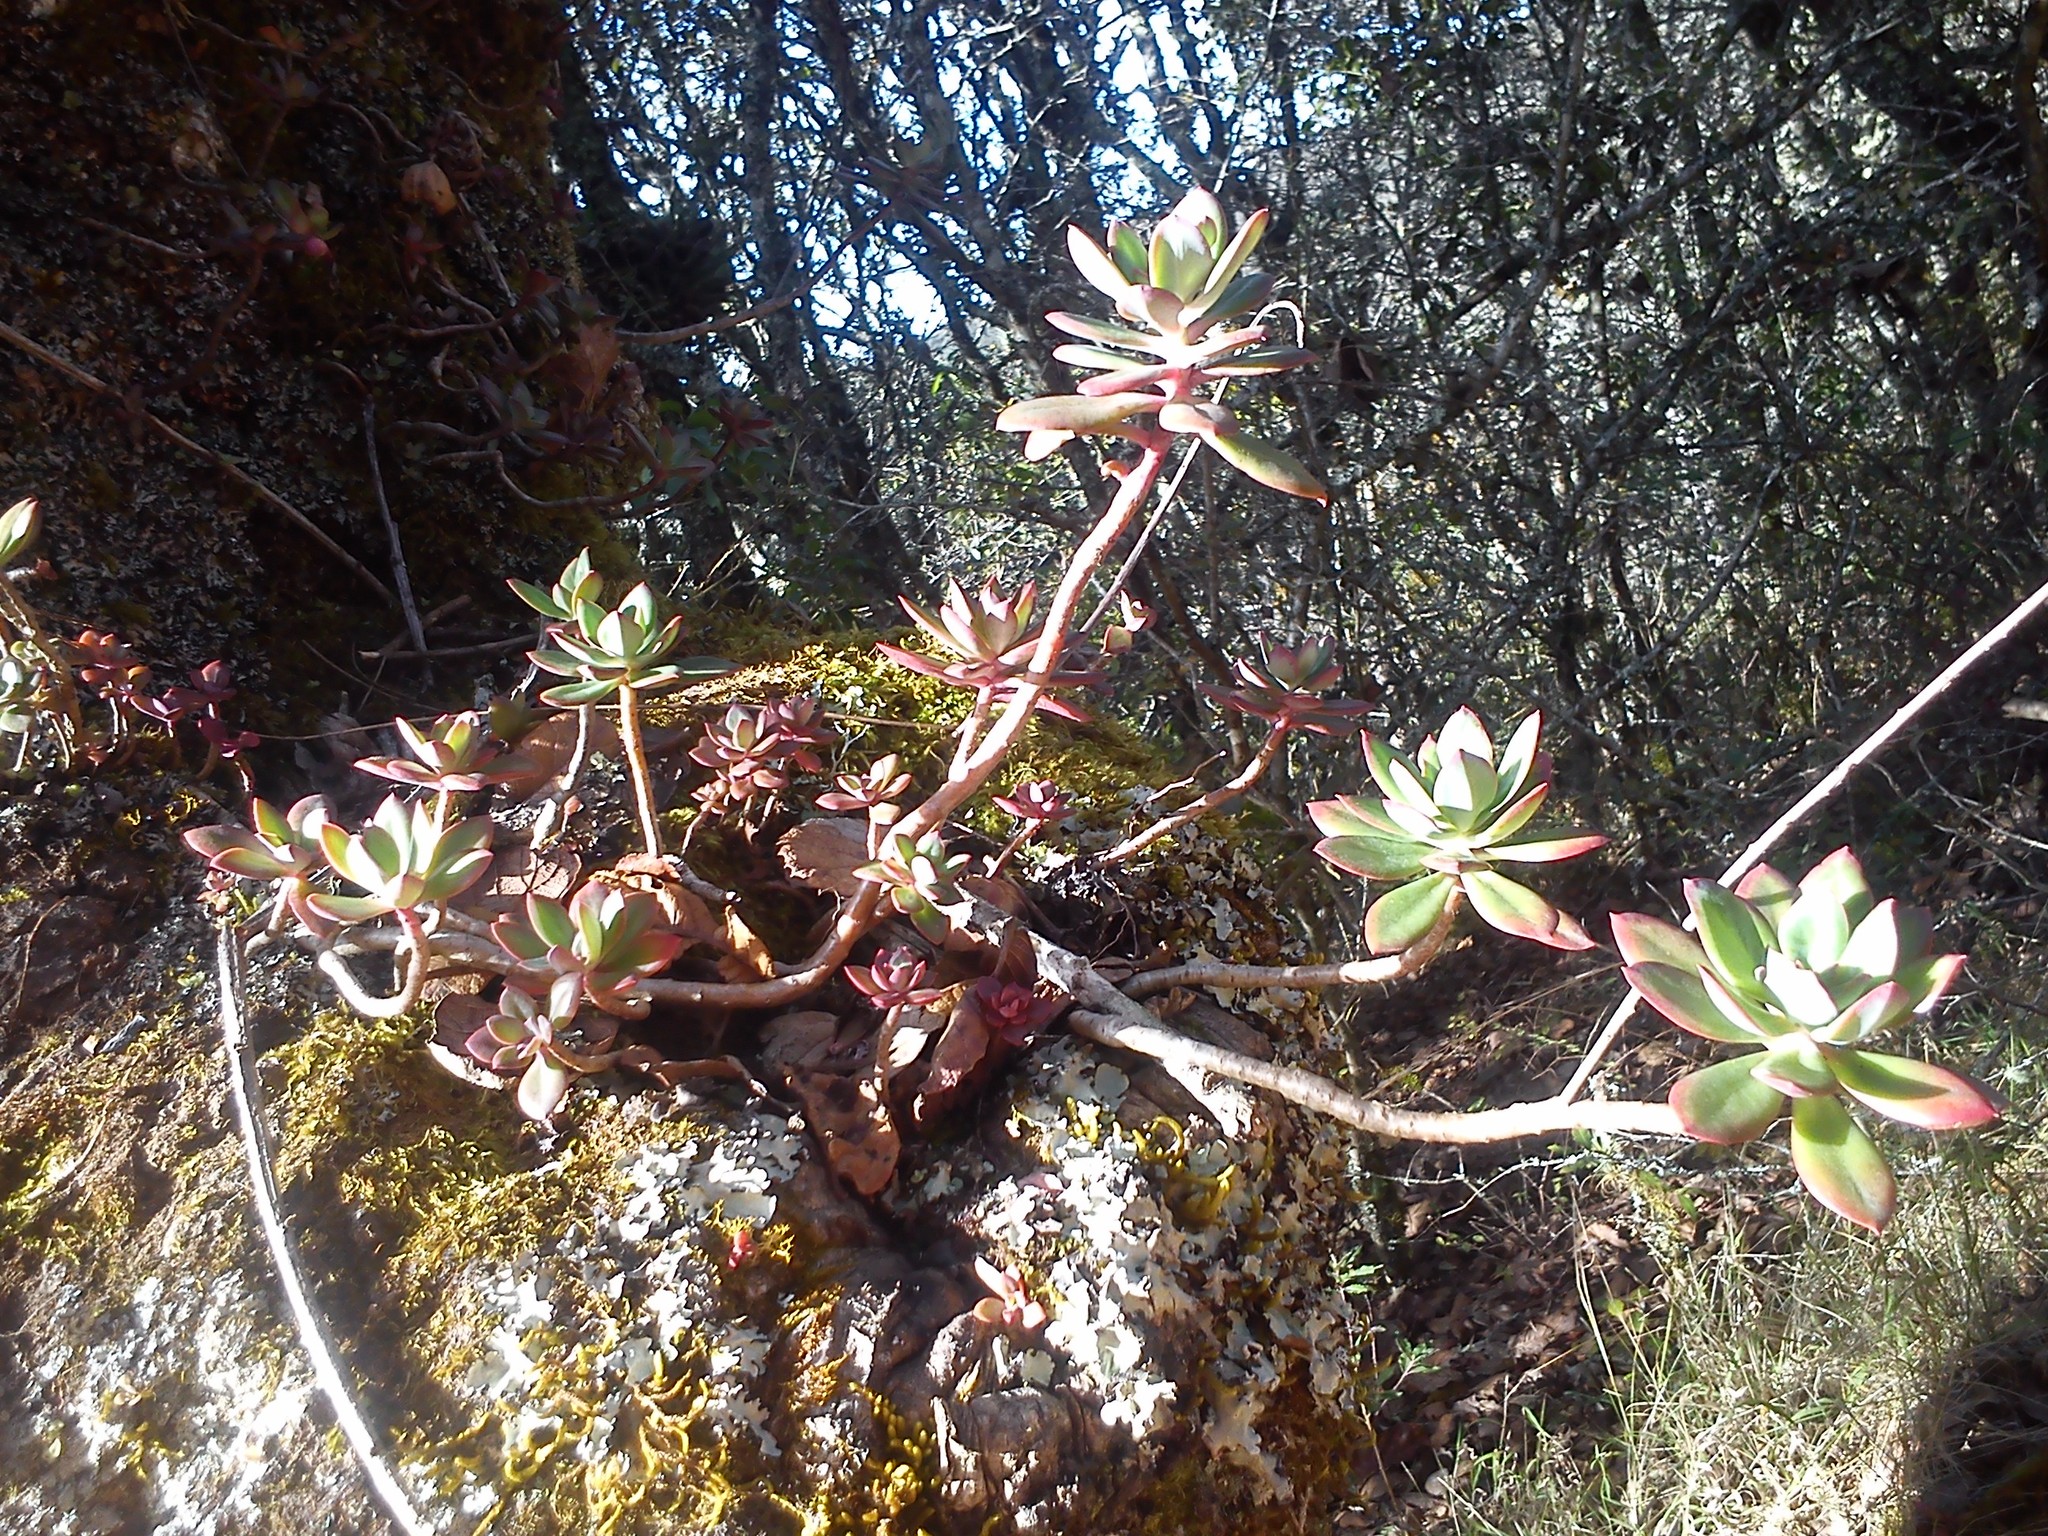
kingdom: Plantae
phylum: Tracheophyta
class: Magnoliopsida
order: Saxifragales
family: Crassulaceae
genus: Echeveria
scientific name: Echeveria rosea
